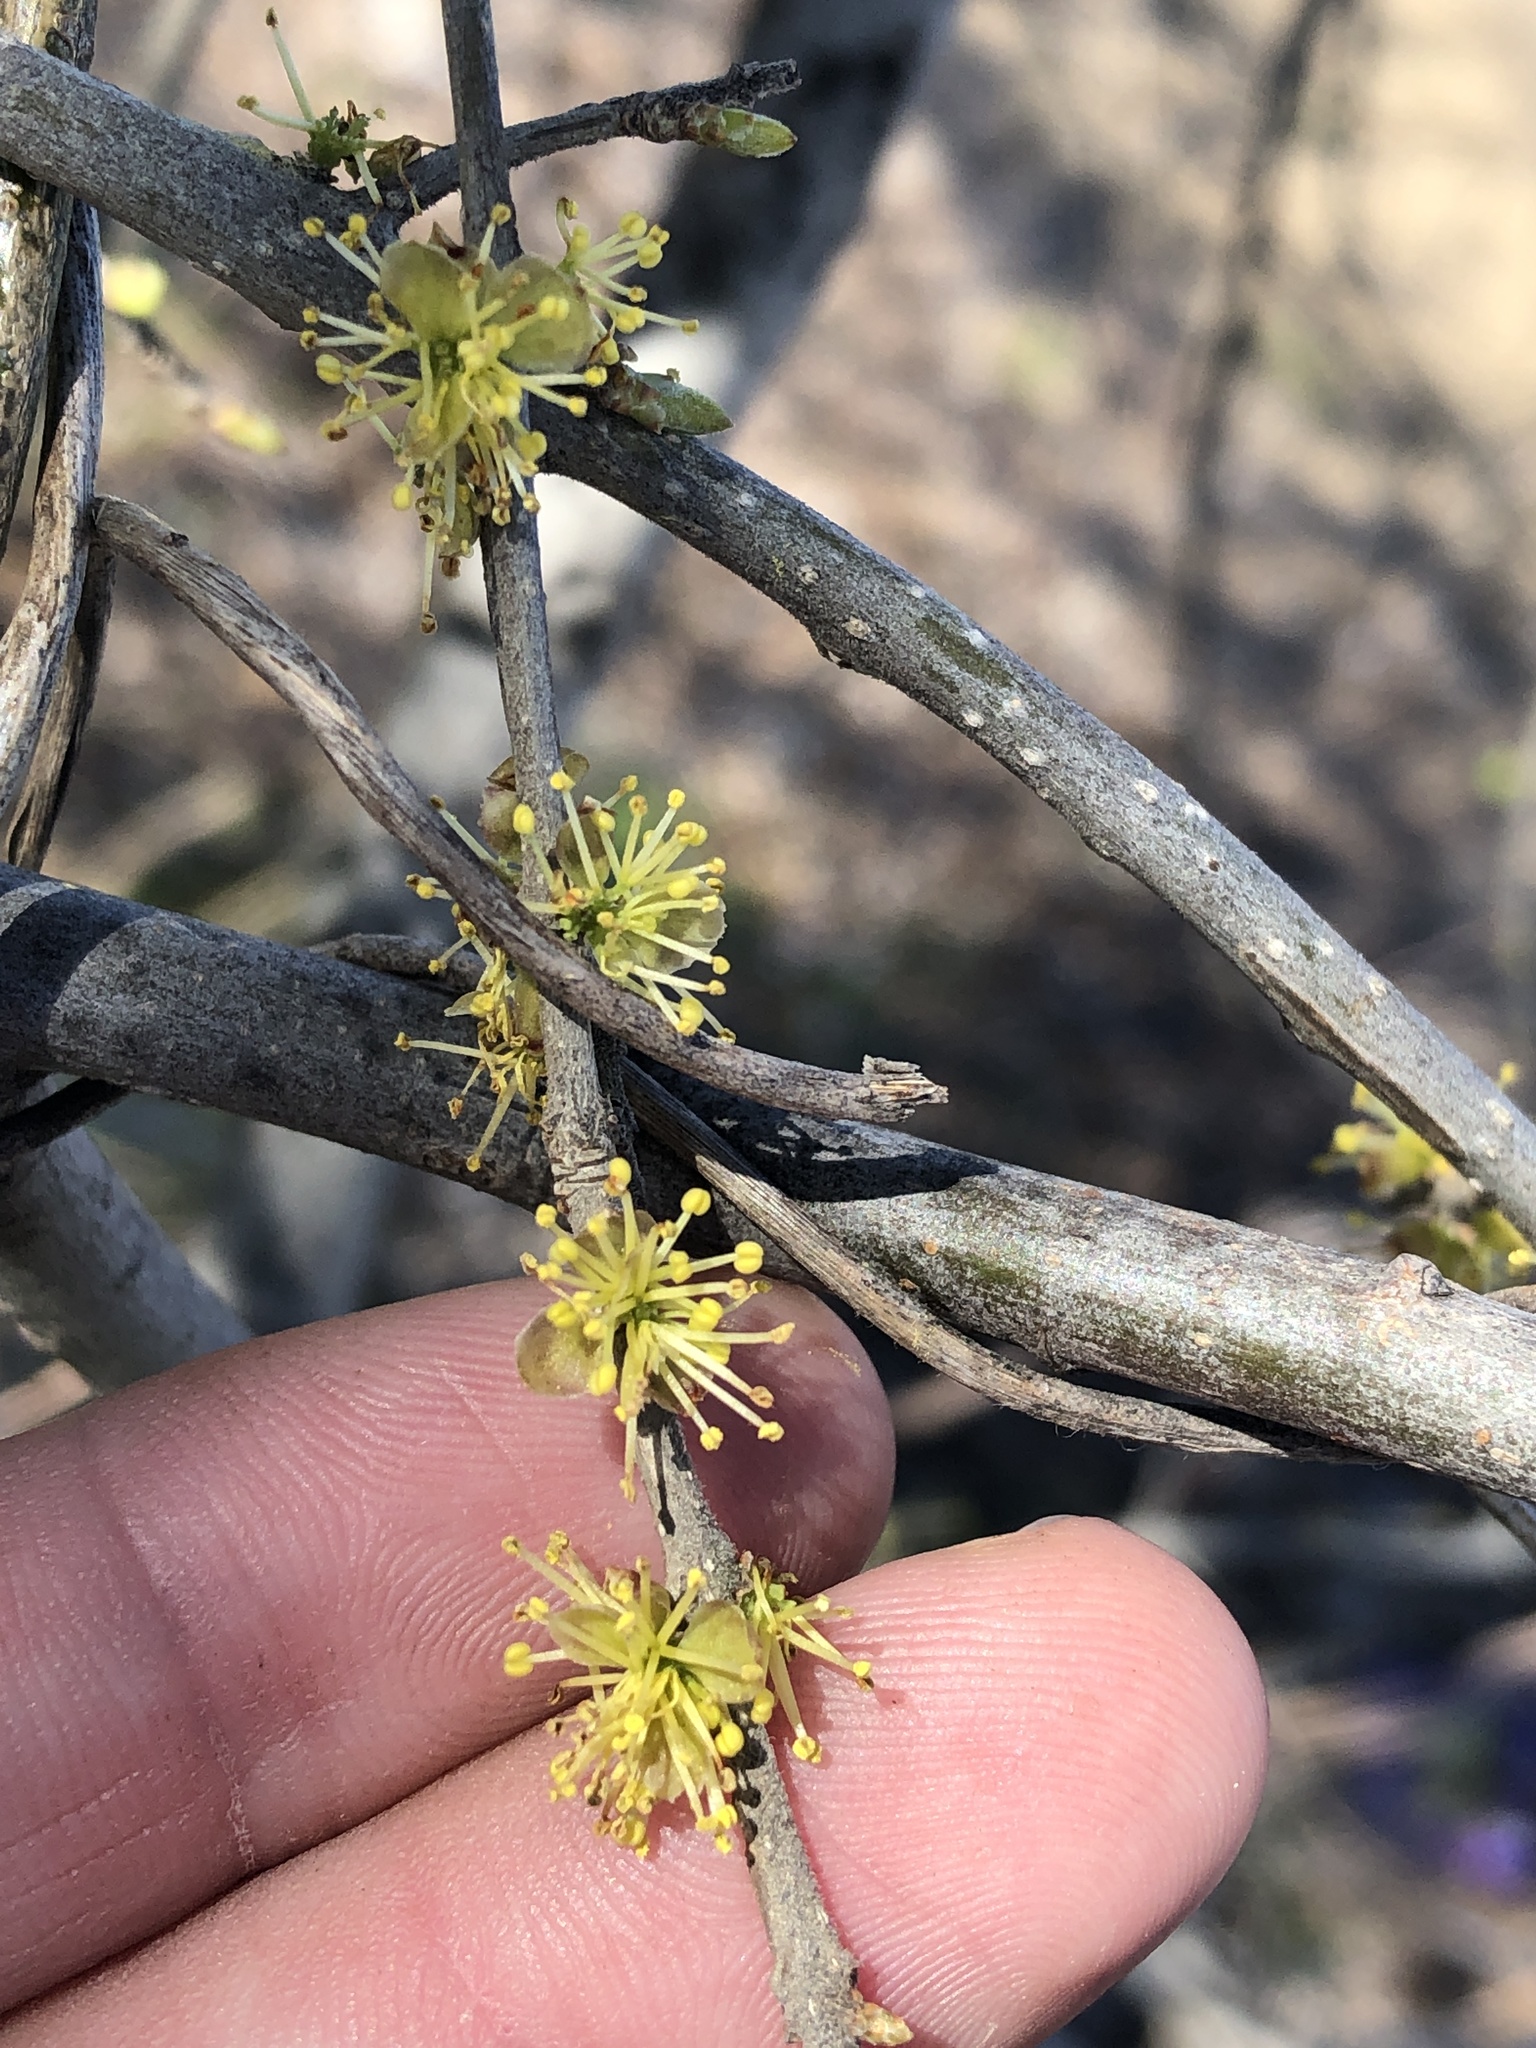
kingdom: Plantae
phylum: Tracheophyta
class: Magnoliopsida
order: Lamiales
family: Oleaceae
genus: Forestiera
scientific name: Forestiera pubescens
